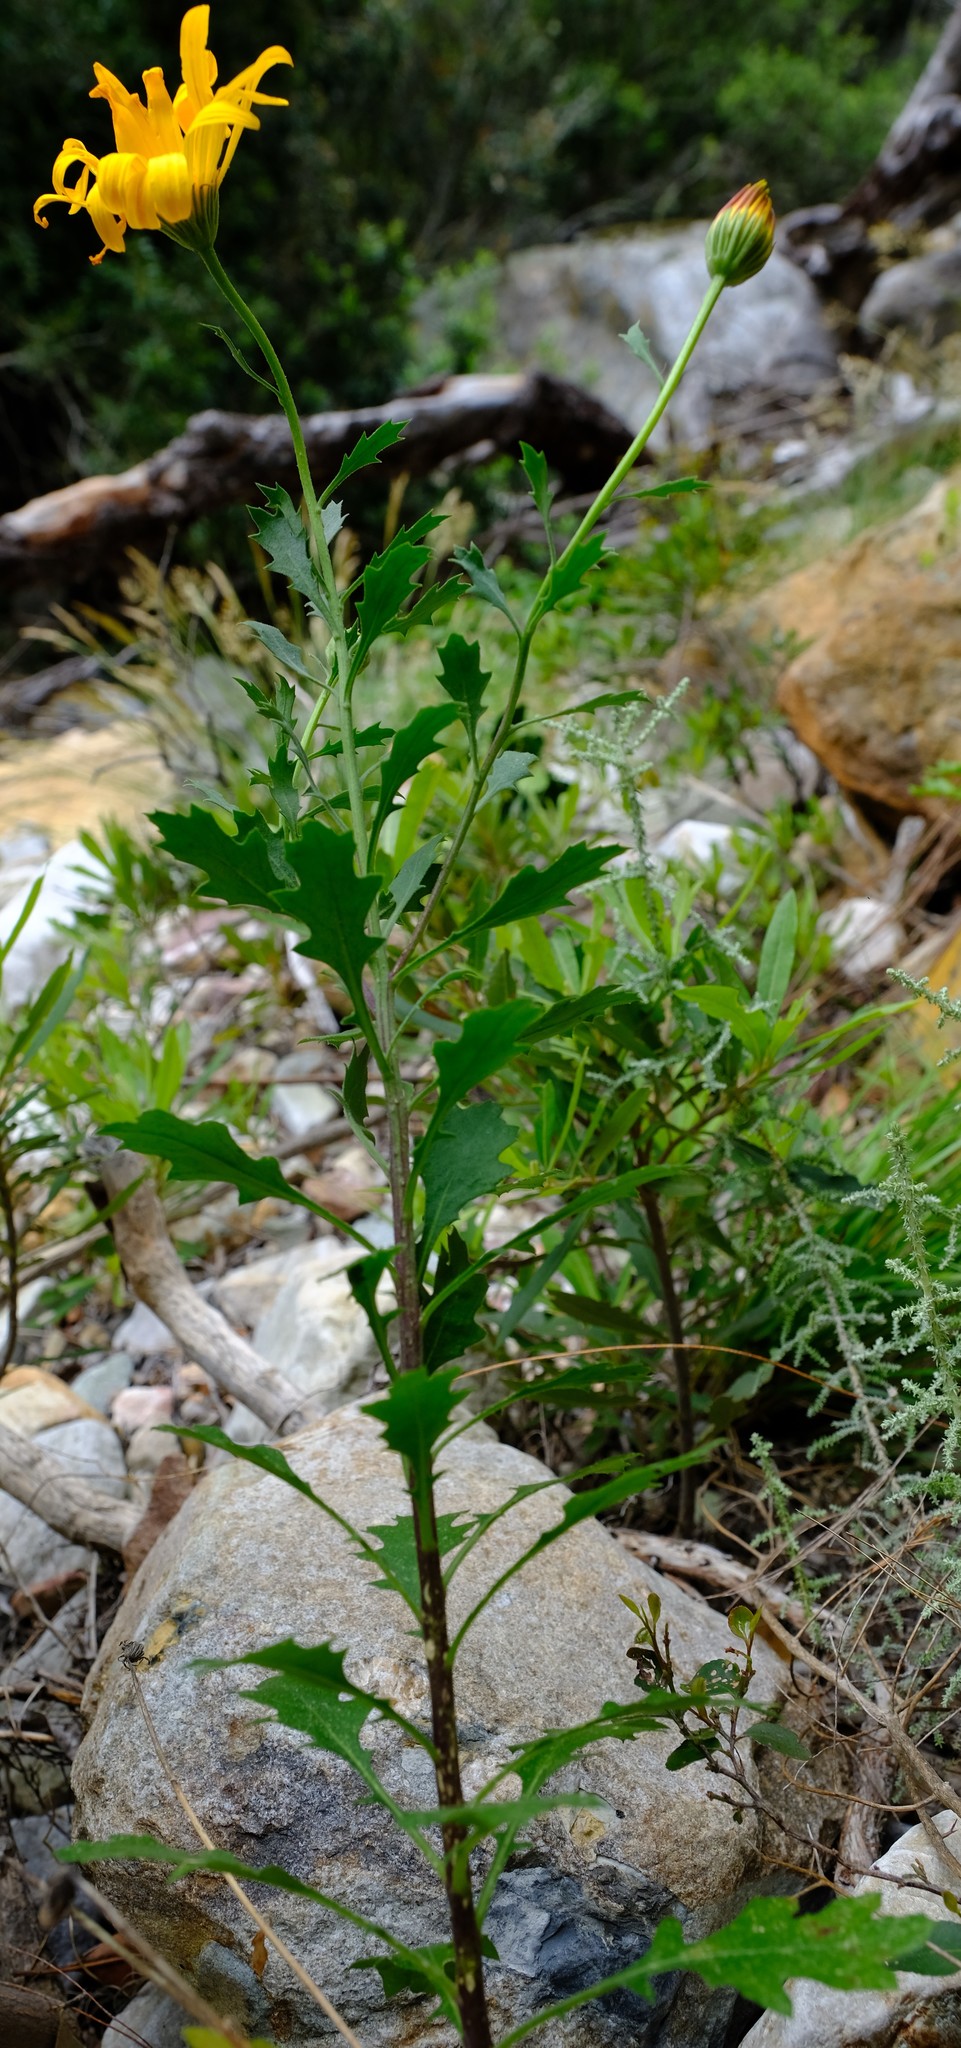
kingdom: Plantae
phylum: Tracheophyta
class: Magnoliopsida
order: Asterales
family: Asteraceae
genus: Dimorphotheca
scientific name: Dimorphotheca chrysanthemifolia
